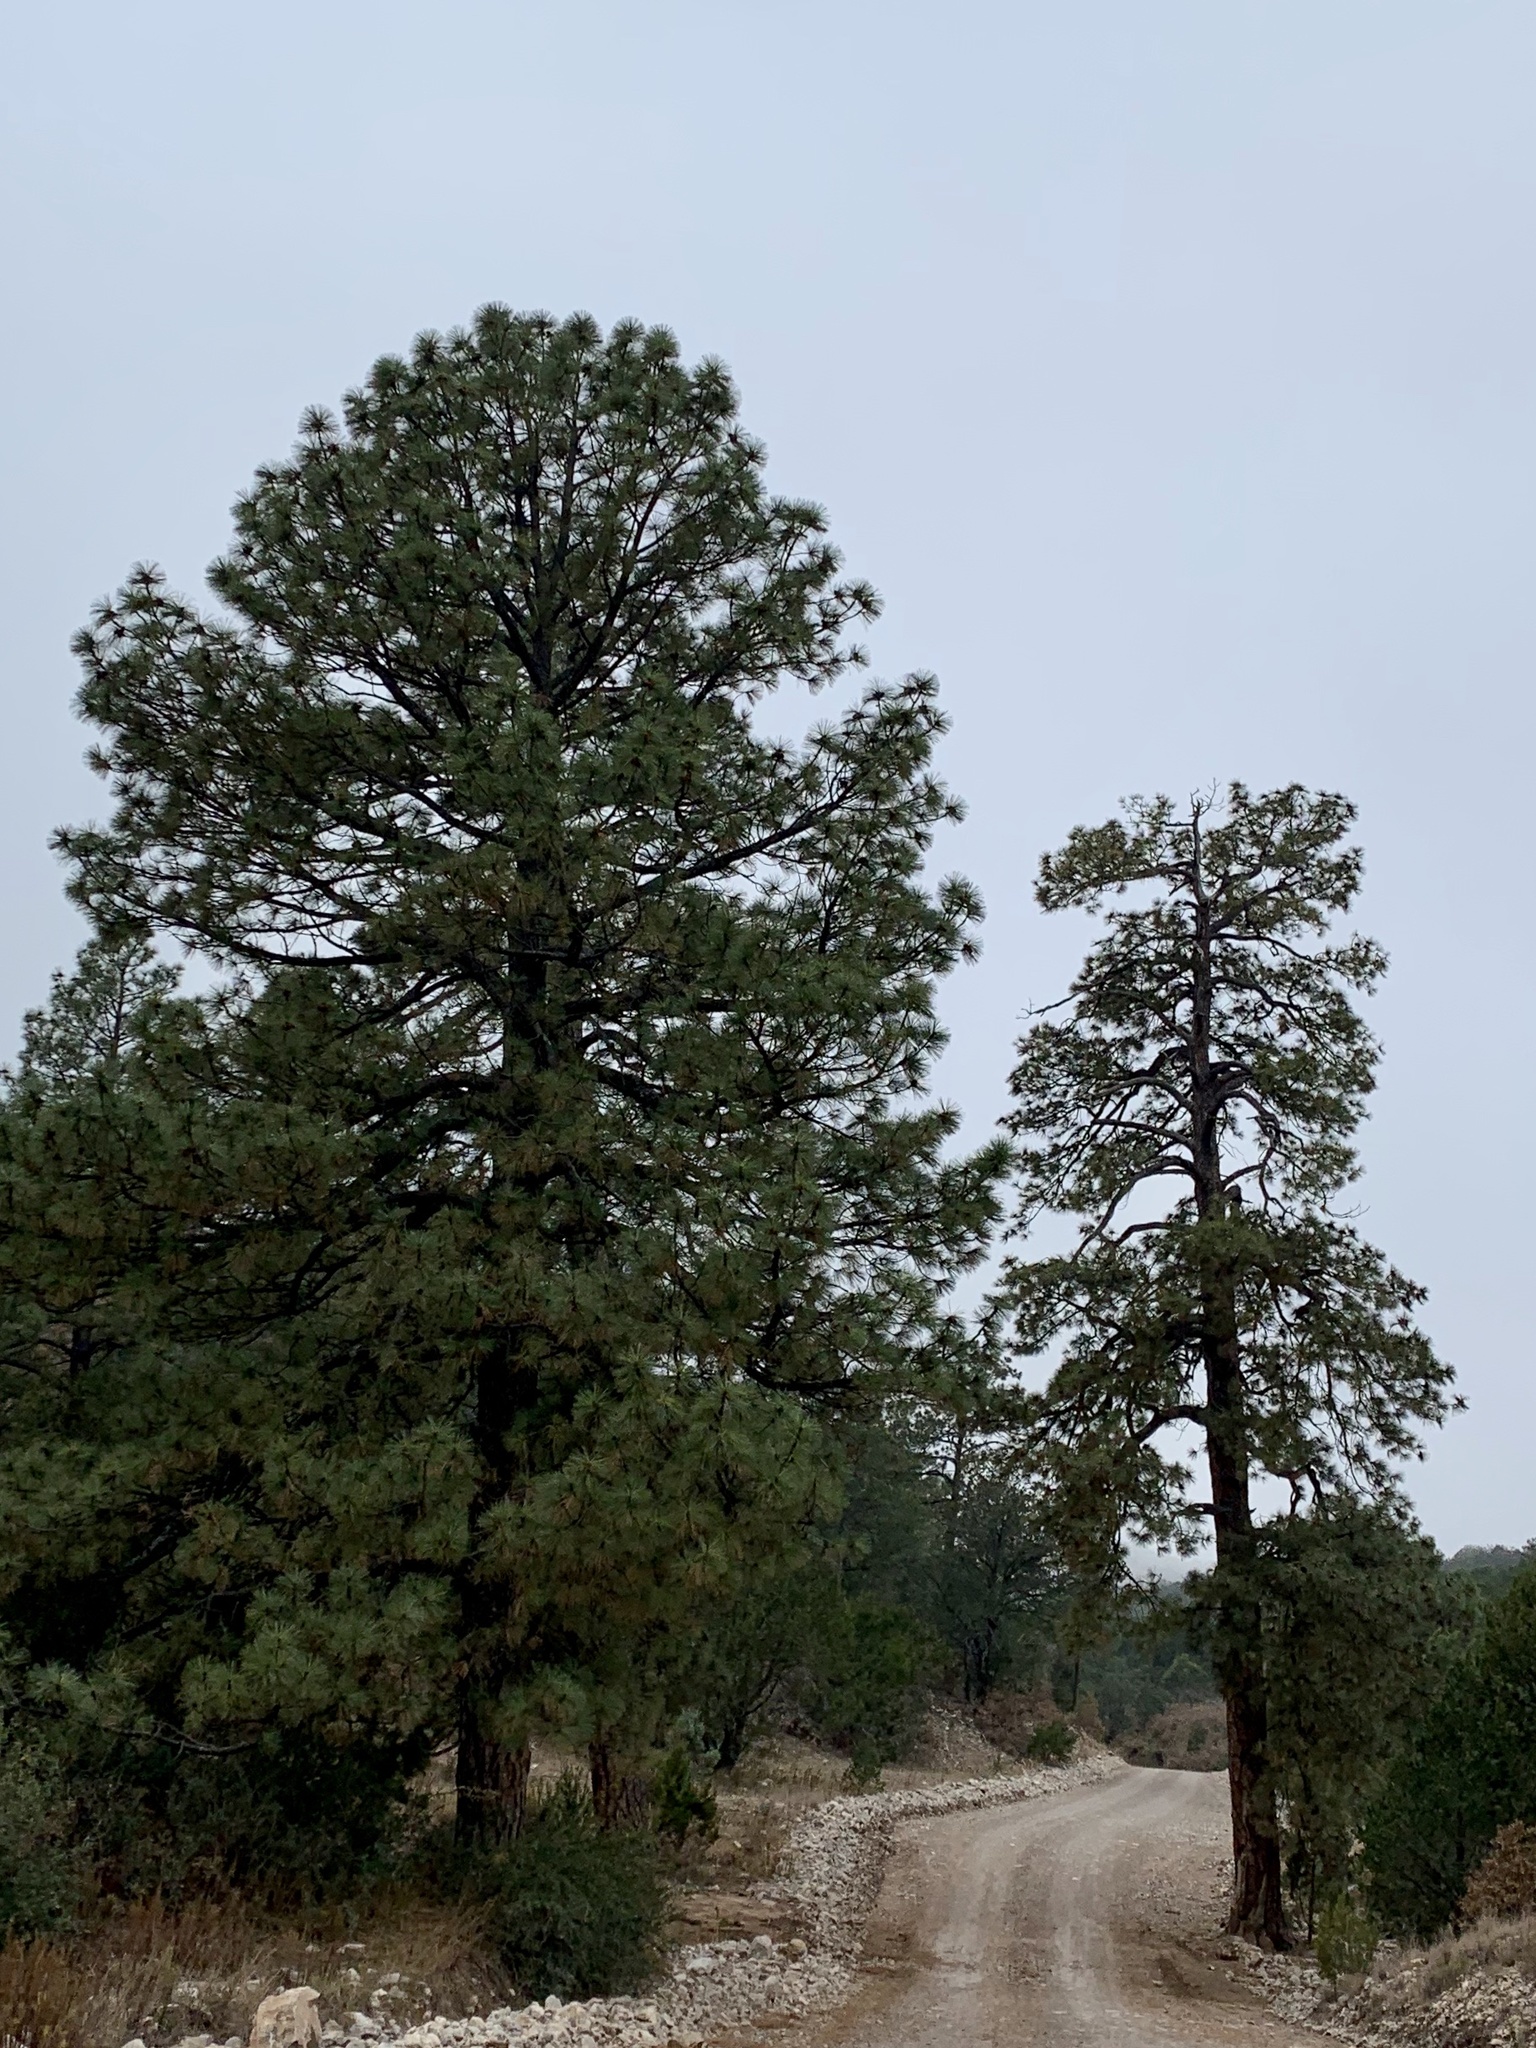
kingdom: Plantae
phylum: Tracheophyta
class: Pinopsida
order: Pinales
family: Pinaceae
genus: Pinus
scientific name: Pinus ponderosa
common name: Western yellow-pine
